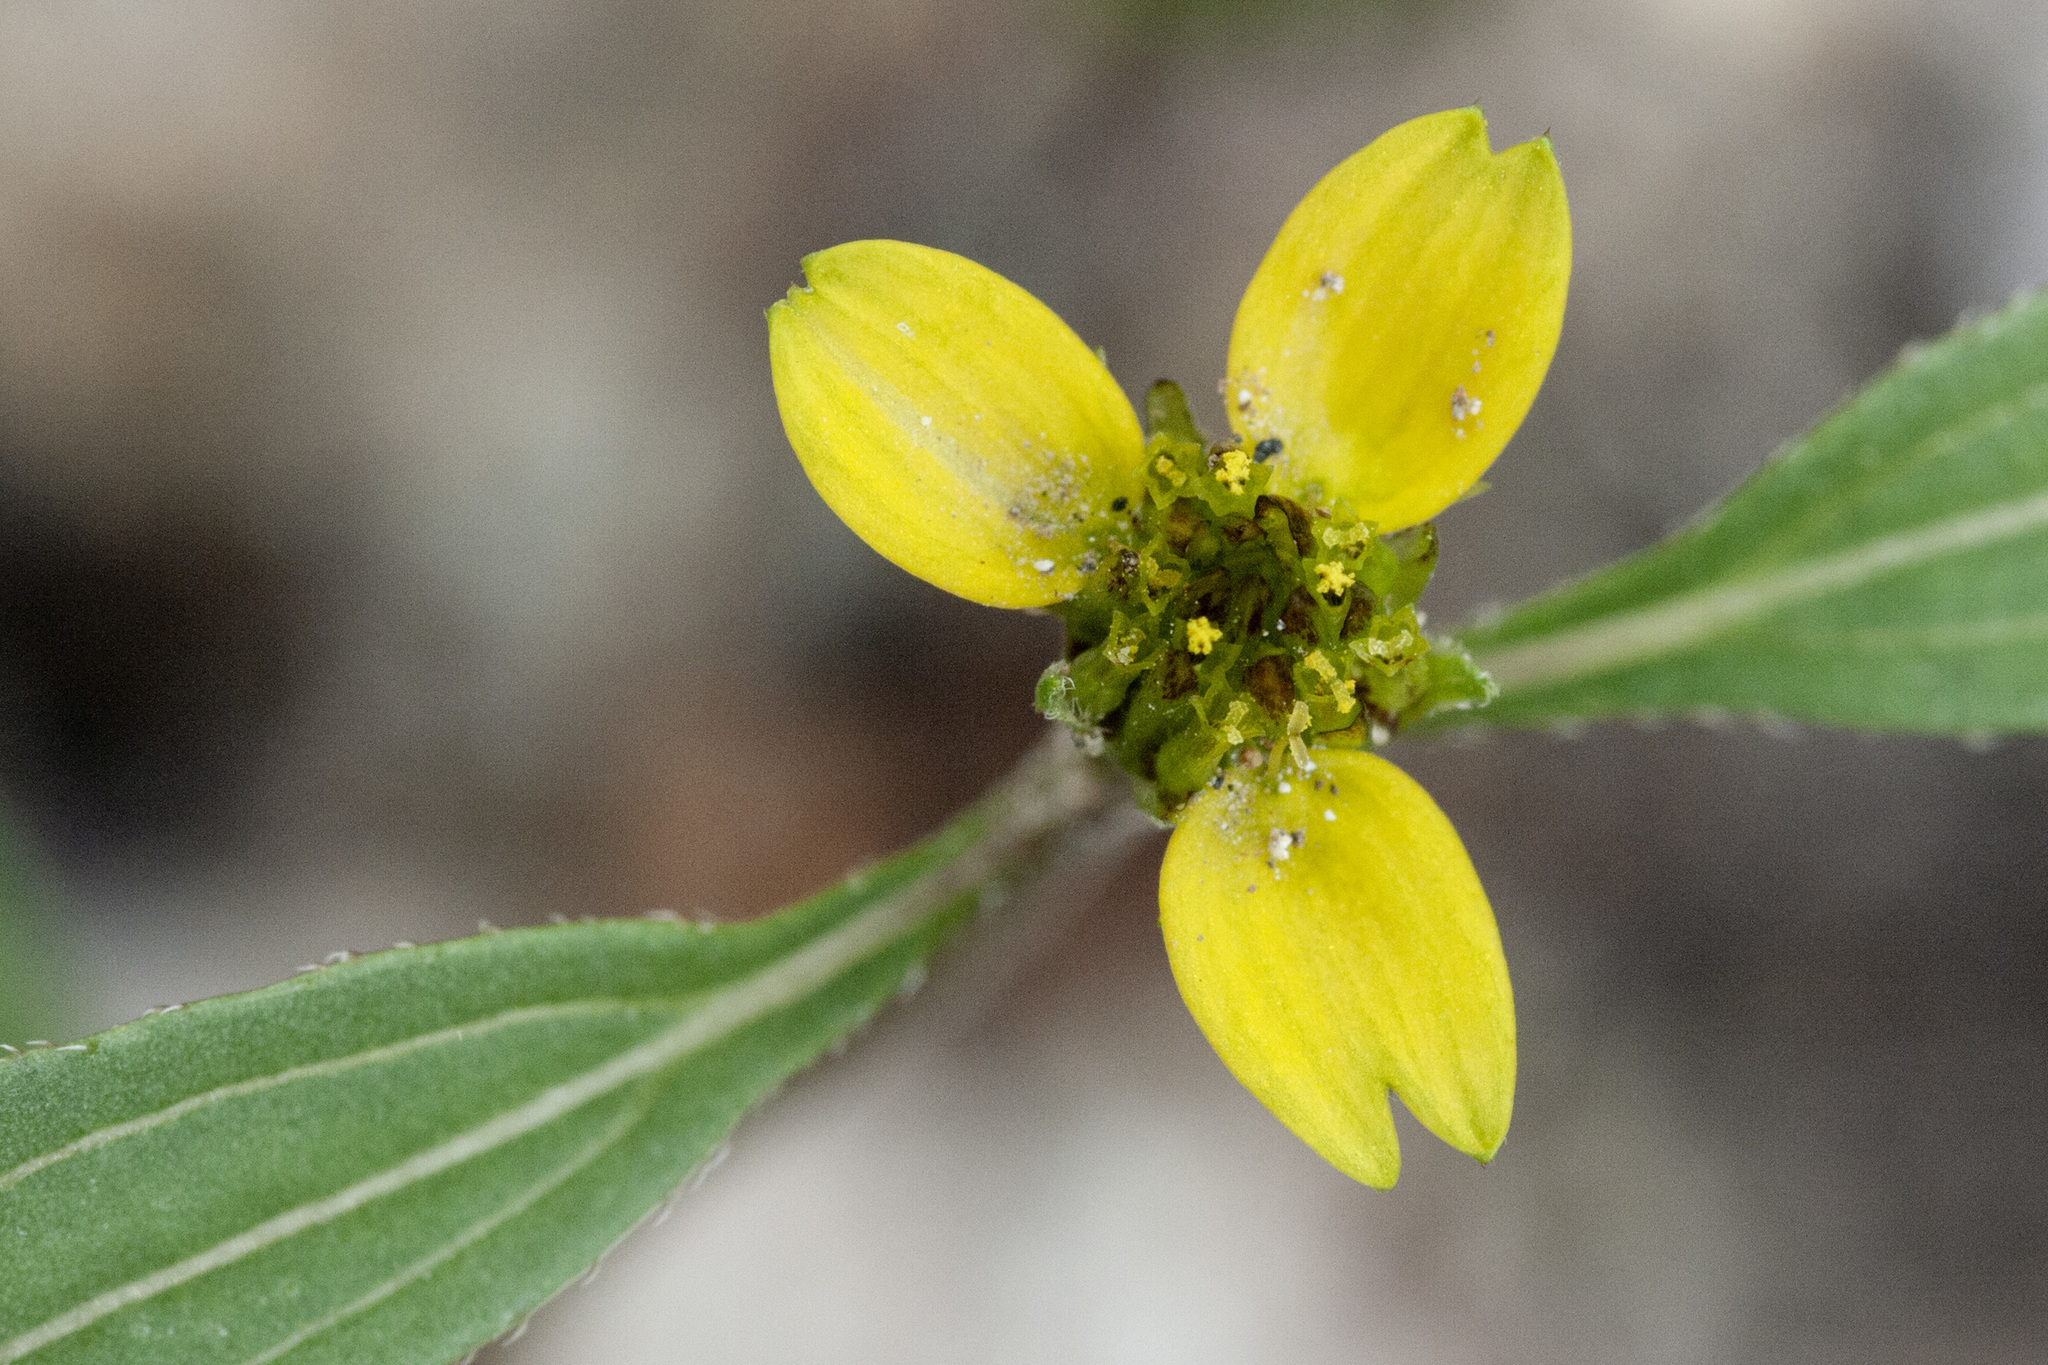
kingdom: Plantae
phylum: Tracheophyta
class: Magnoliopsida
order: Asterales
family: Asteraceae
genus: Sanvitalia
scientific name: Sanvitalia abertii
